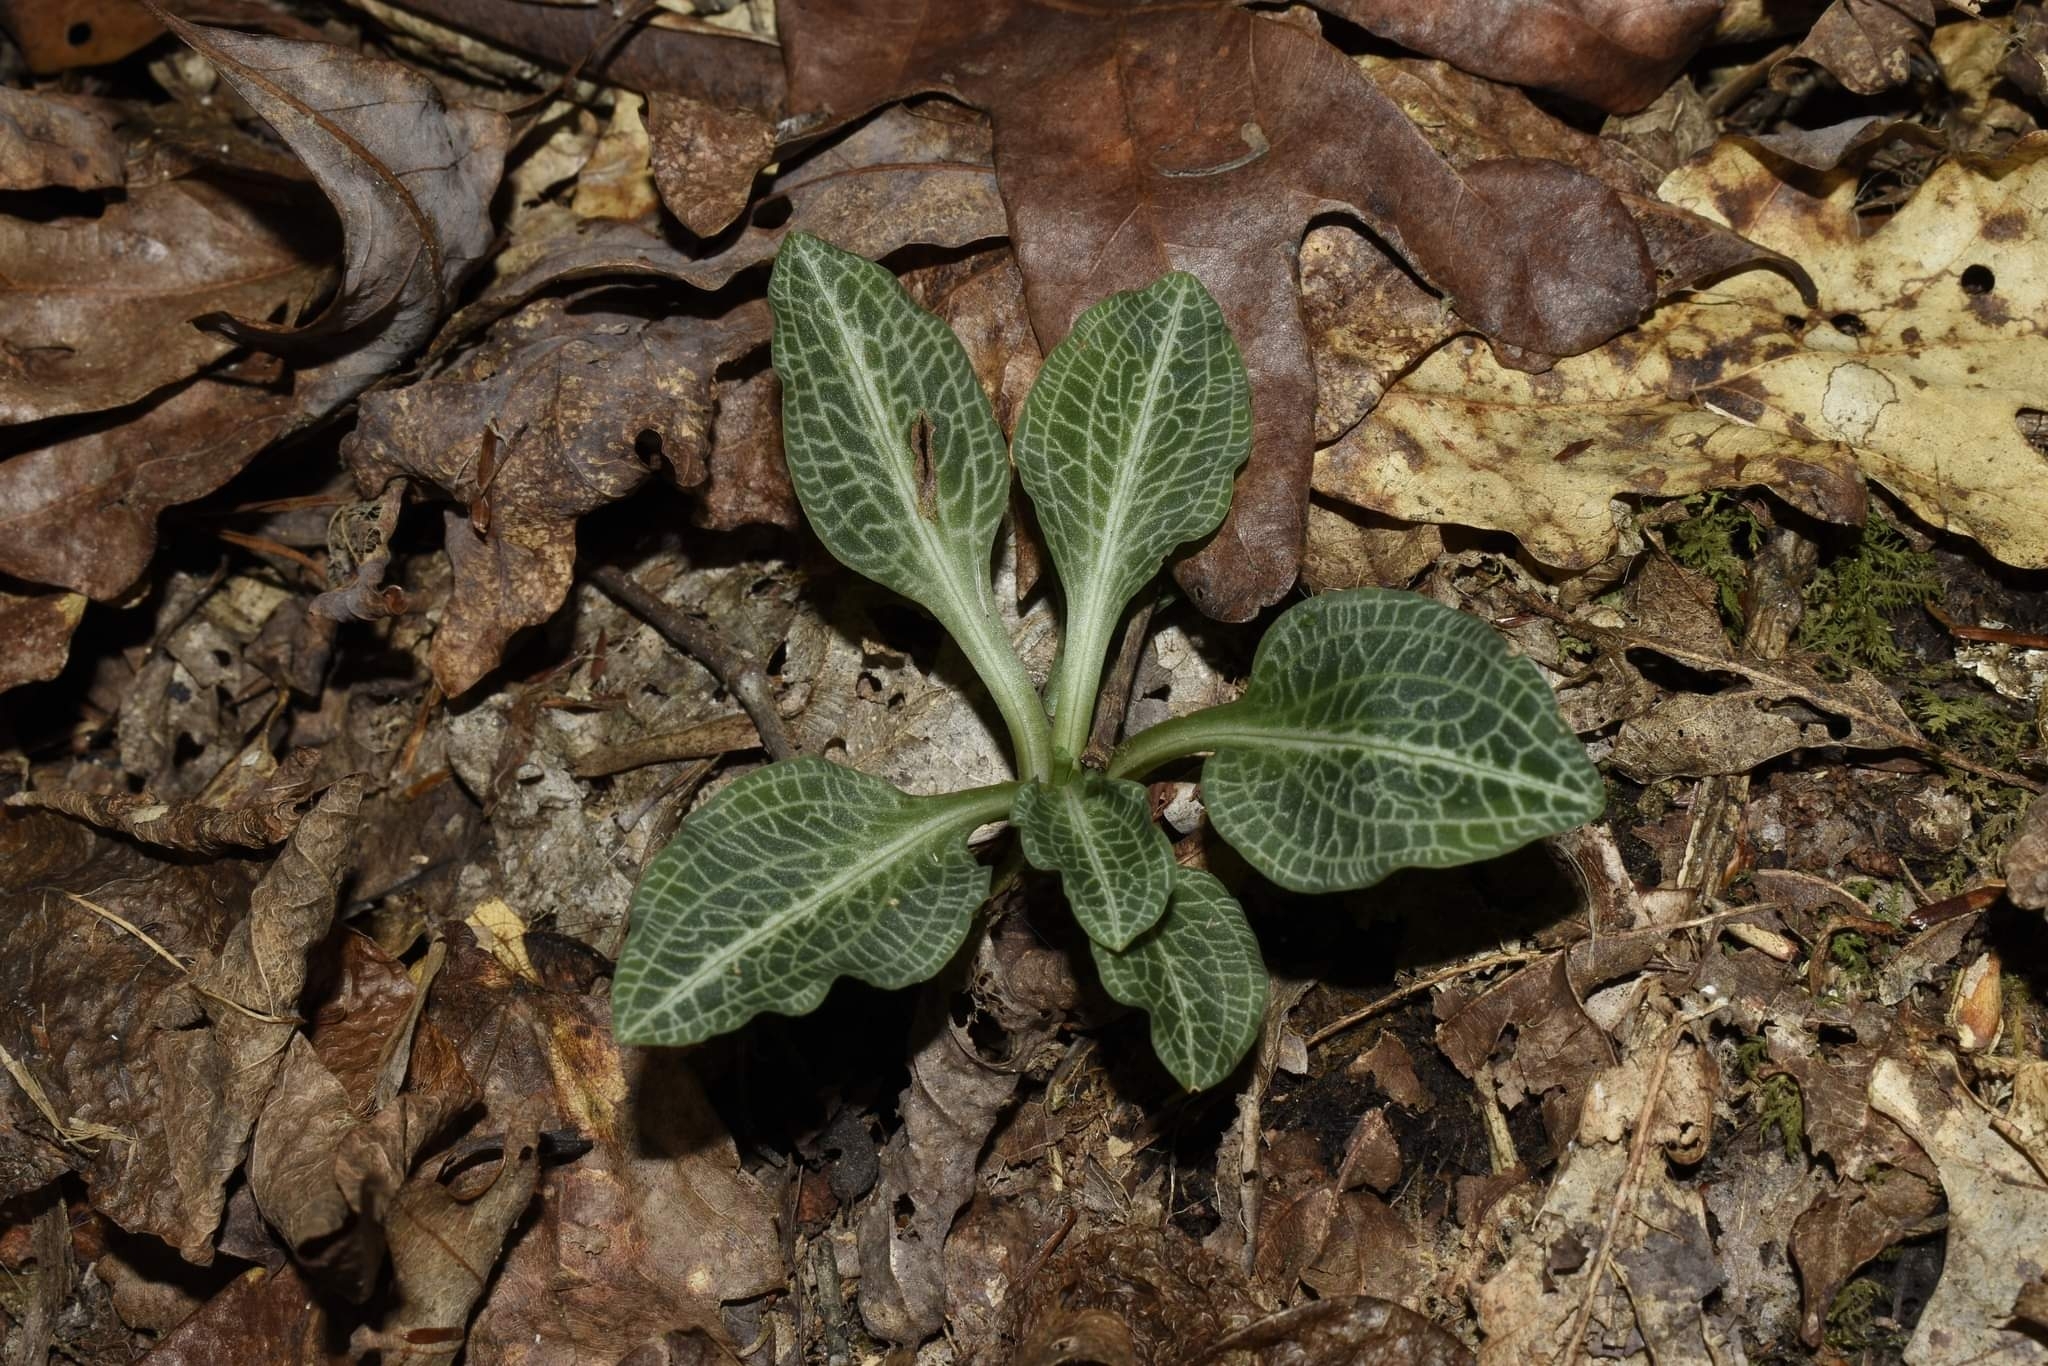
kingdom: Plantae
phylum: Tracheophyta
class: Liliopsida
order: Asparagales
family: Orchidaceae
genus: Goodyera
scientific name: Goodyera pubescens
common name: Downy rattlesnake-plantain
